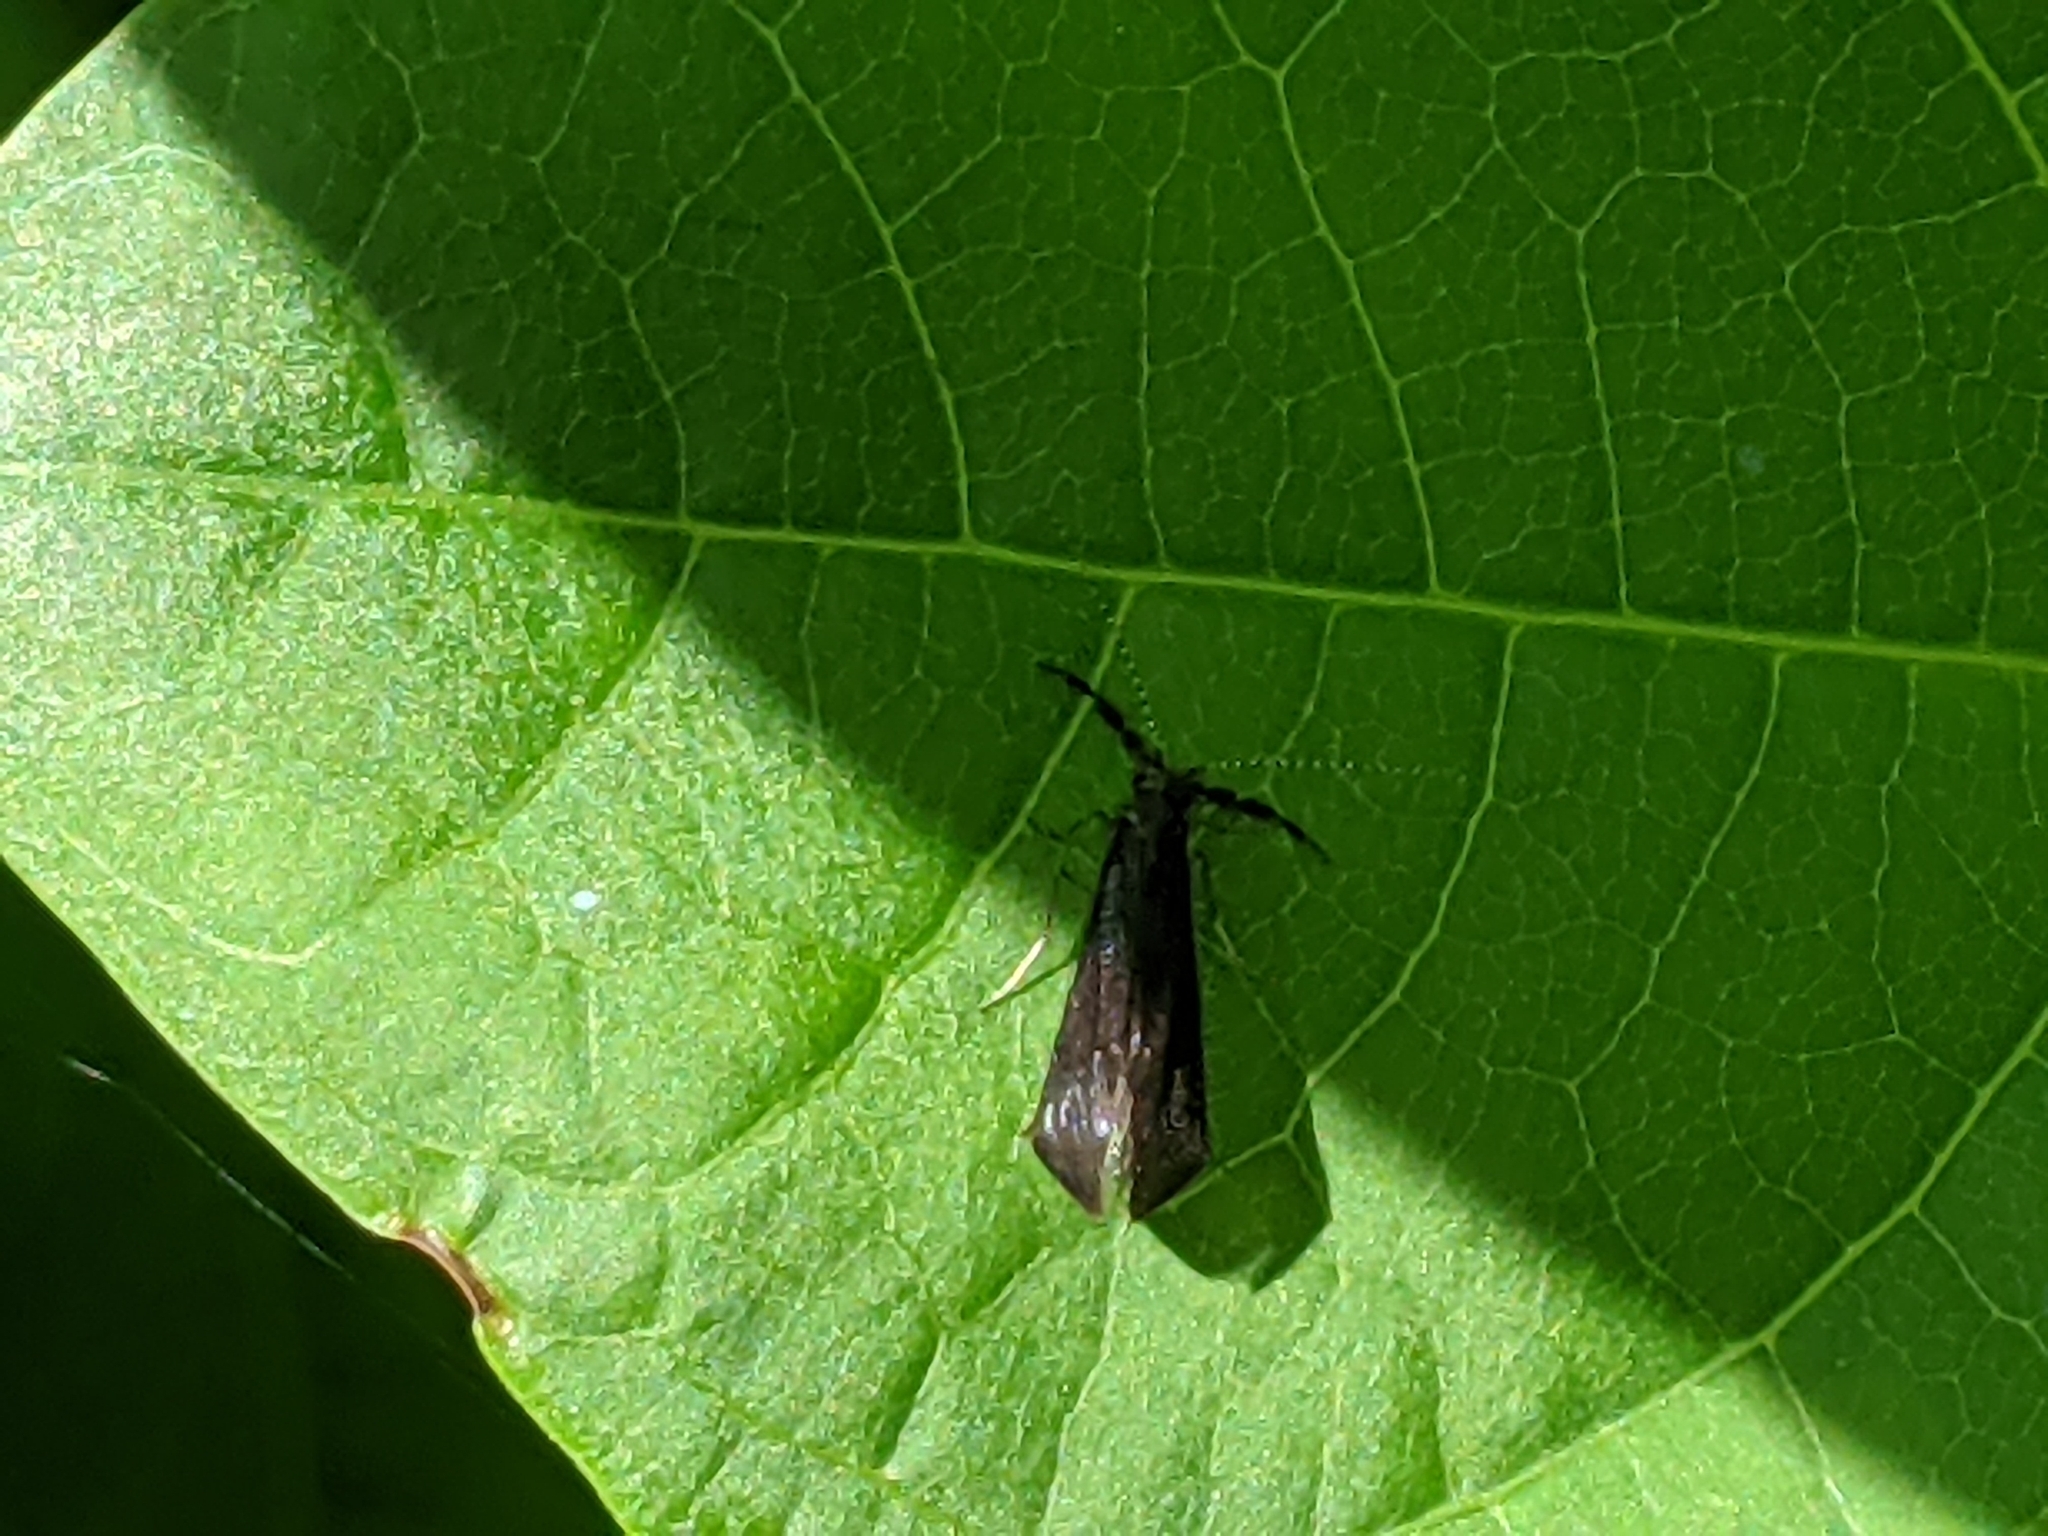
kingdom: Animalia
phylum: Arthropoda
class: Insecta
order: Trichoptera
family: Leptoceridae
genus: Mystacides
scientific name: Mystacides sepulchralis
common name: Black dancer caddisfly
